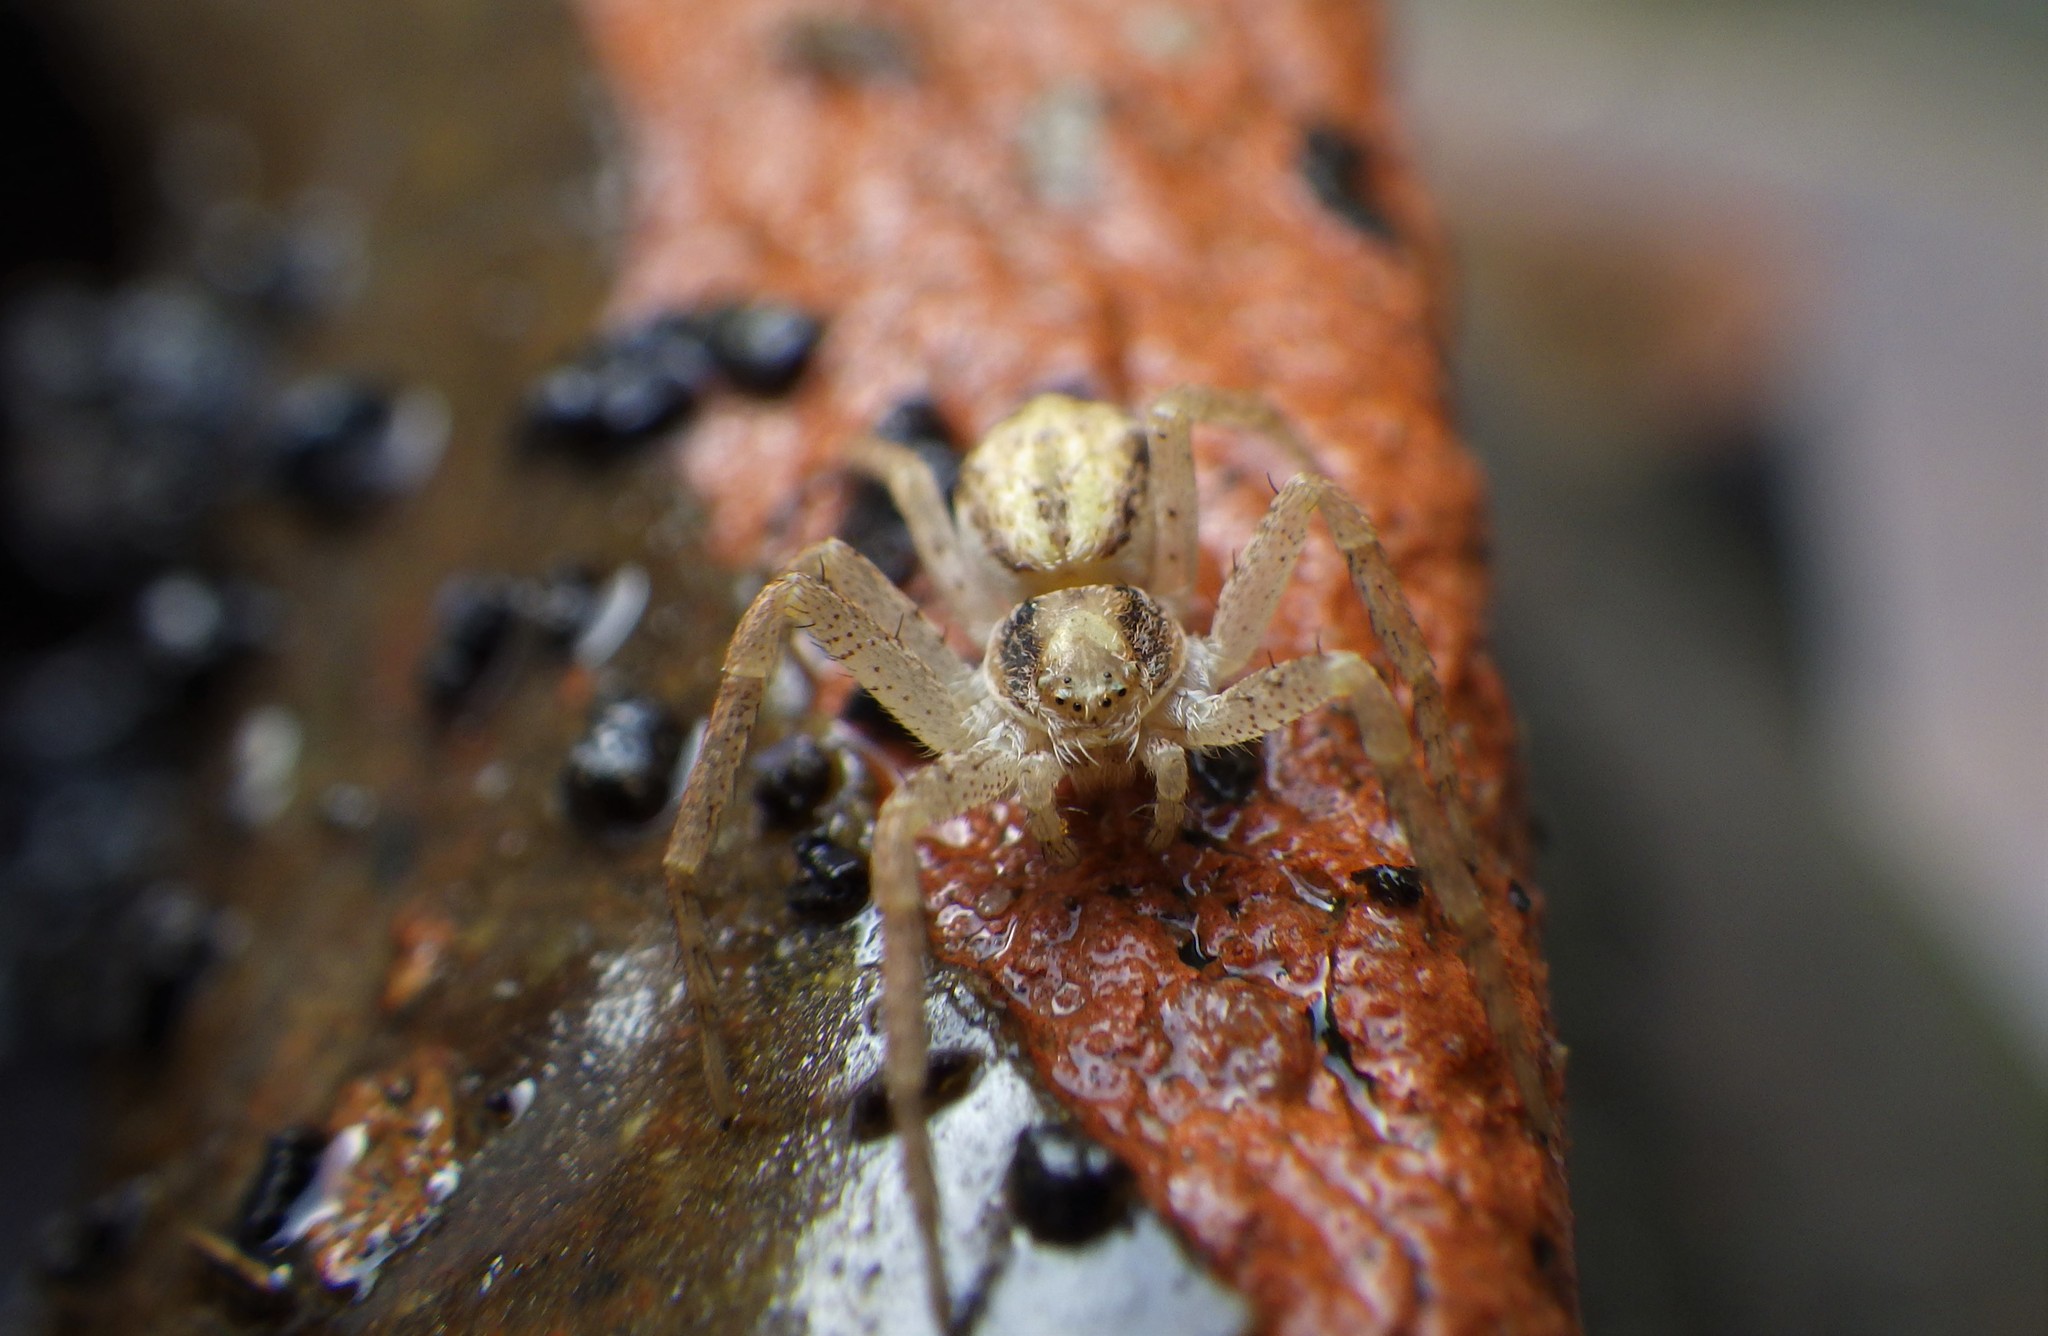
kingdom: Animalia
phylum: Arthropoda
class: Arachnida
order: Araneae
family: Philodromidae
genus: Philodromus
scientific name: Philodromus dispar
